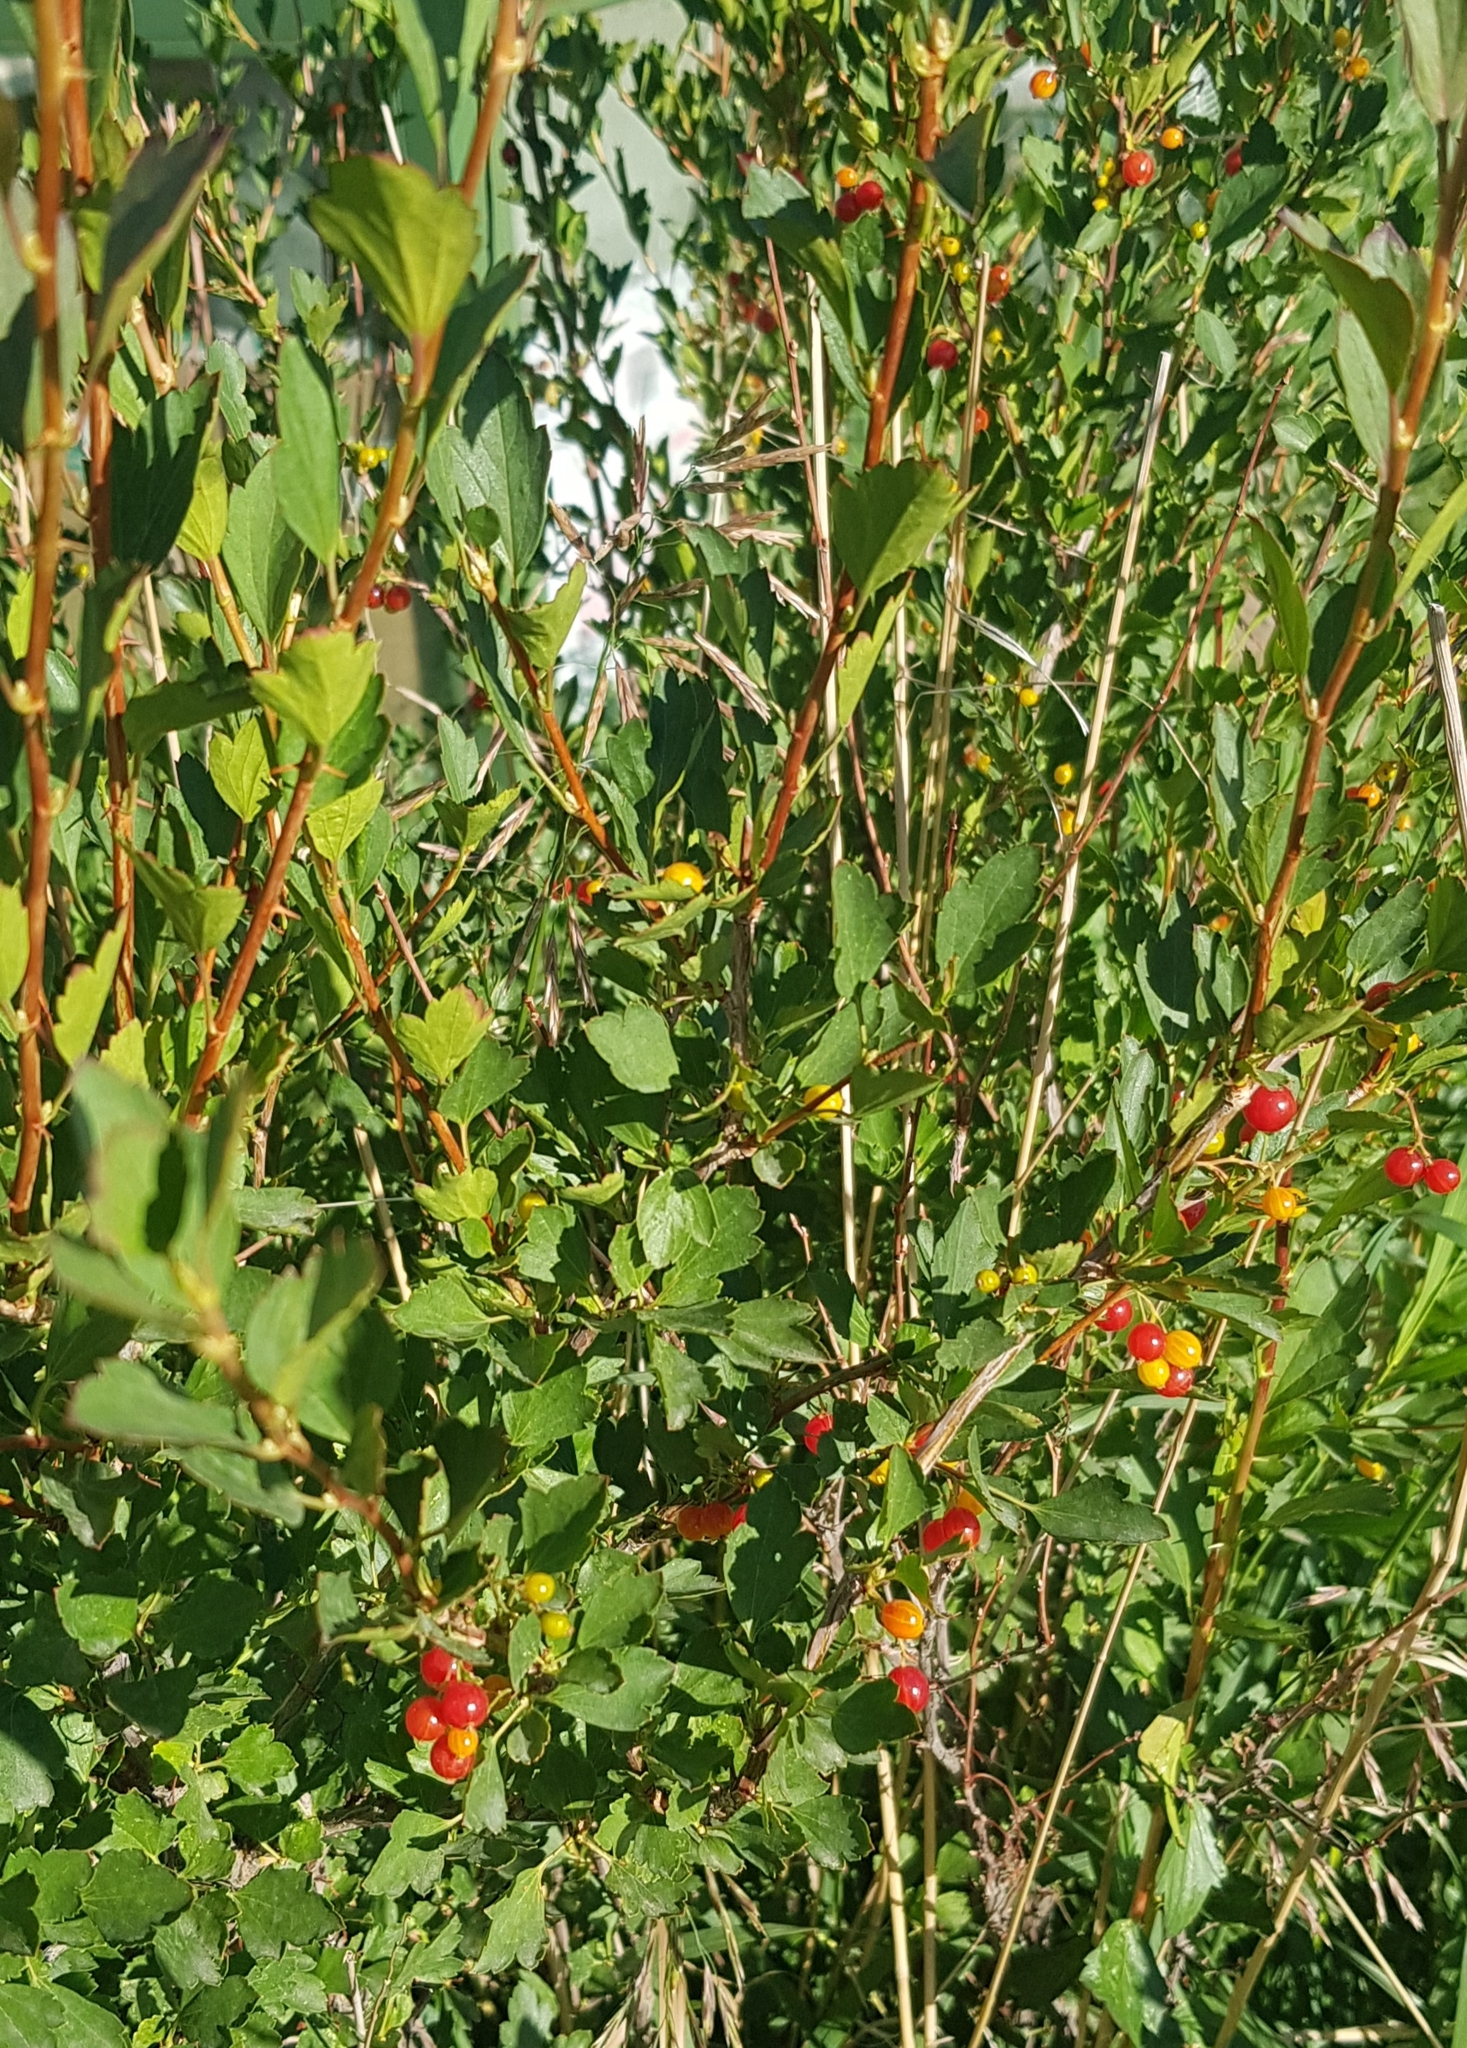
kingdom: Plantae
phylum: Tracheophyta
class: Magnoliopsida
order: Saxifragales
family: Grossulariaceae
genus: Ribes
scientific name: Ribes diacanthum
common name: Siberian currant
